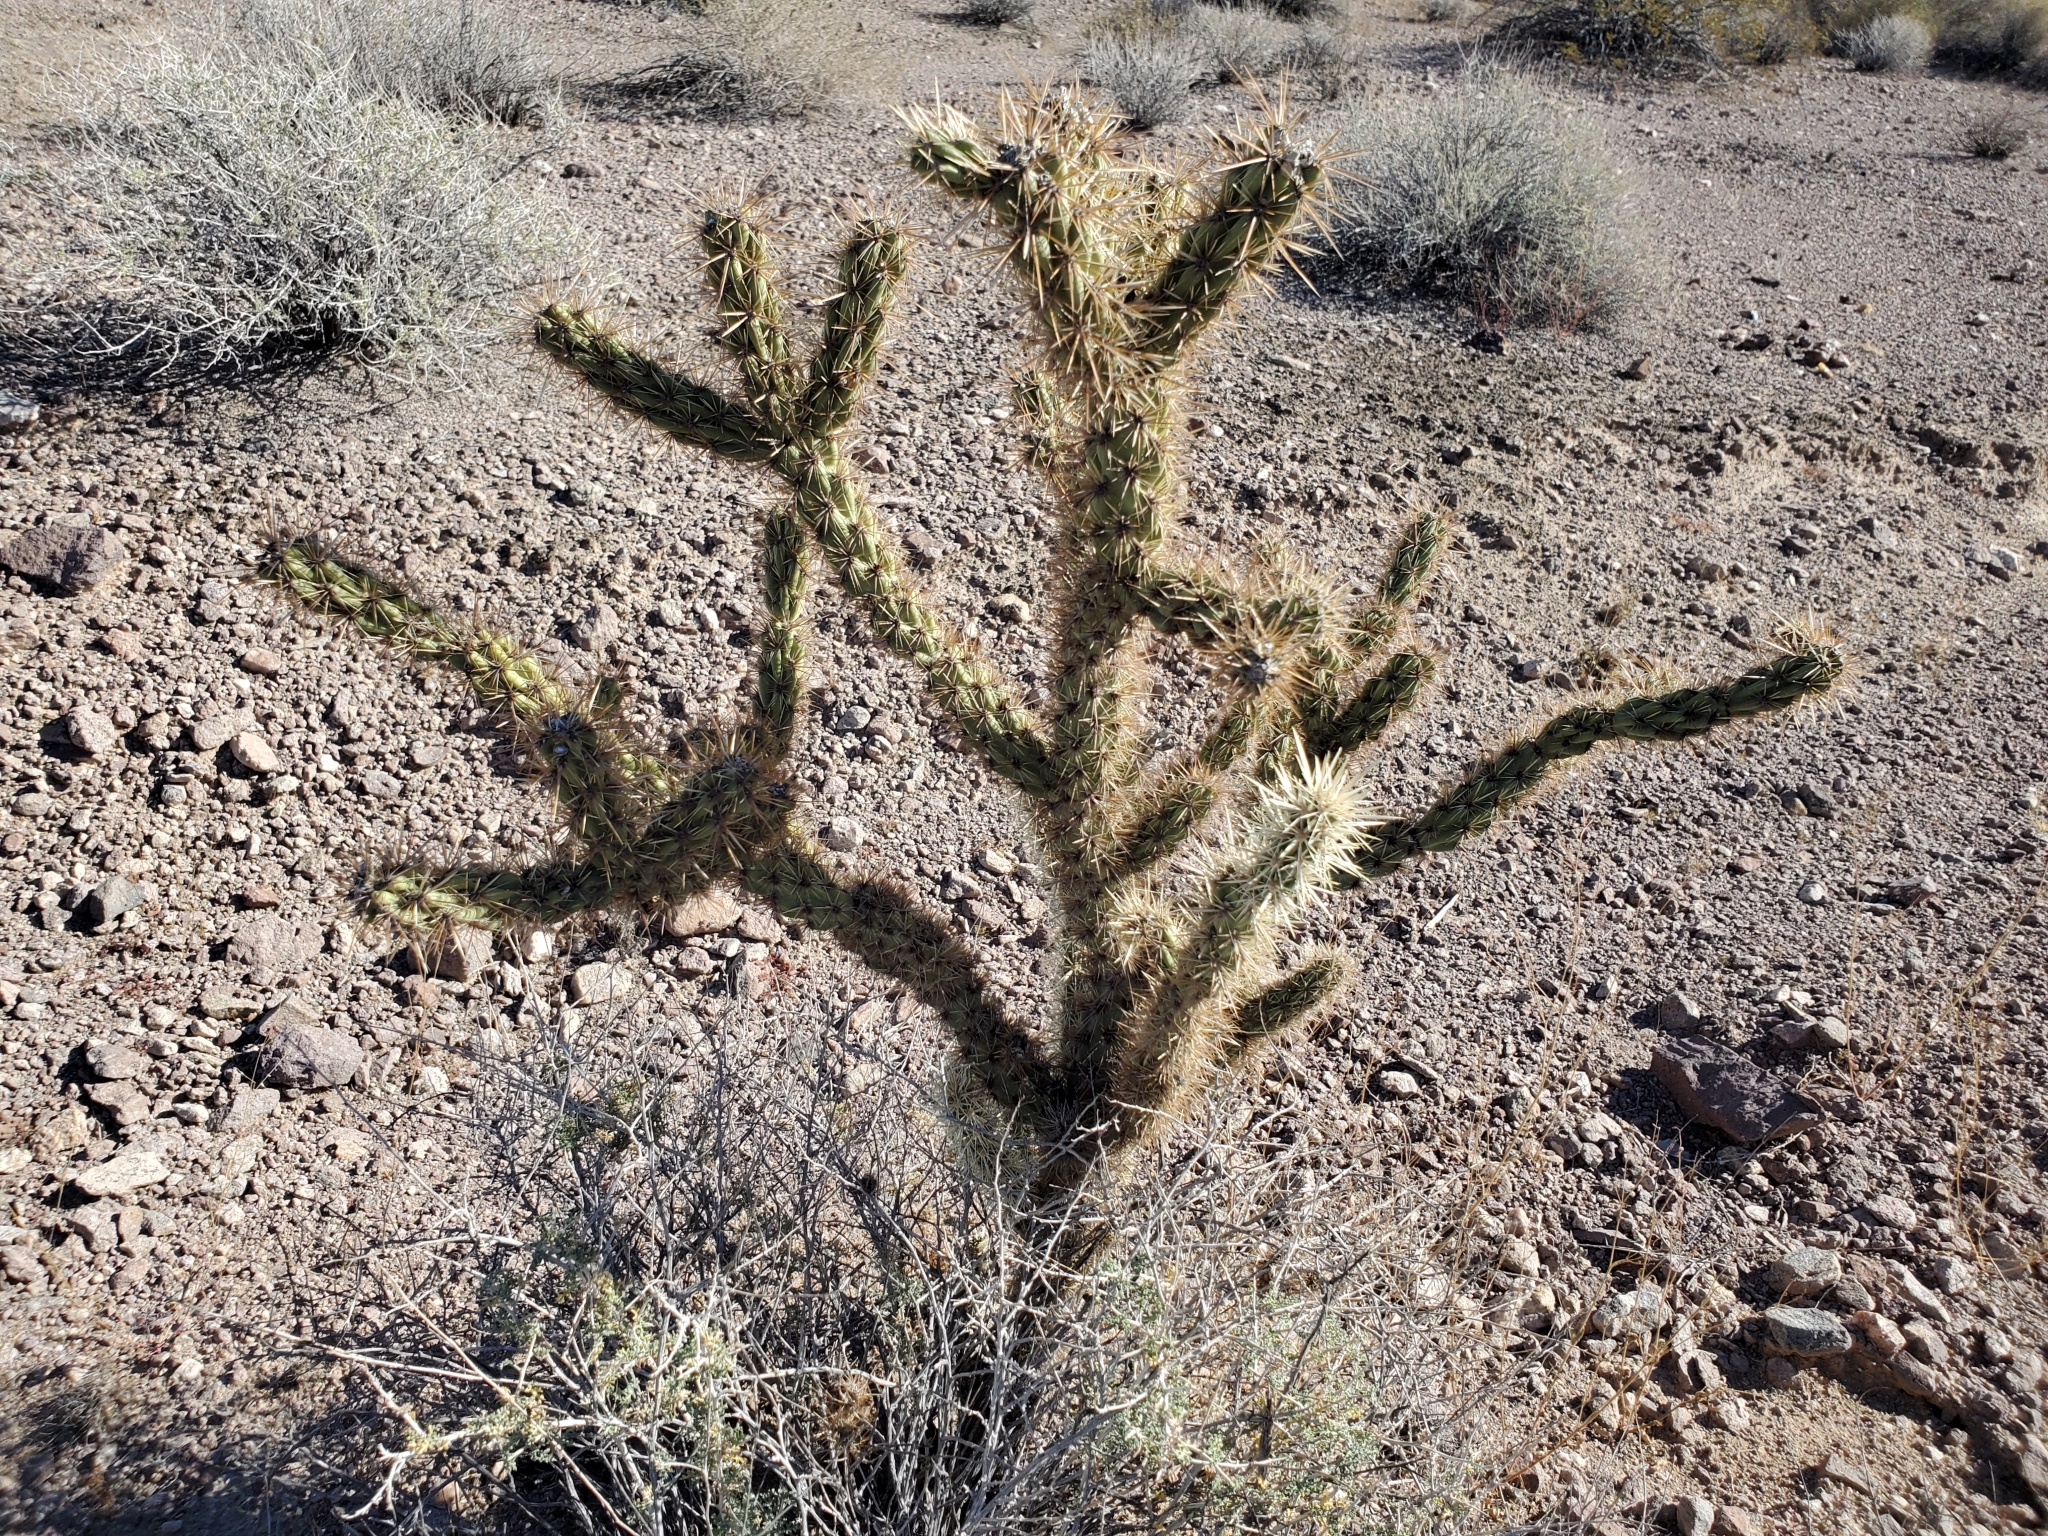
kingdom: Plantae
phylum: Tracheophyta
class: Magnoliopsida
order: Caryophyllales
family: Cactaceae
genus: Cylindropuntia
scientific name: Cylindropuntia acanthocarpa
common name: Buckhorn cholla
